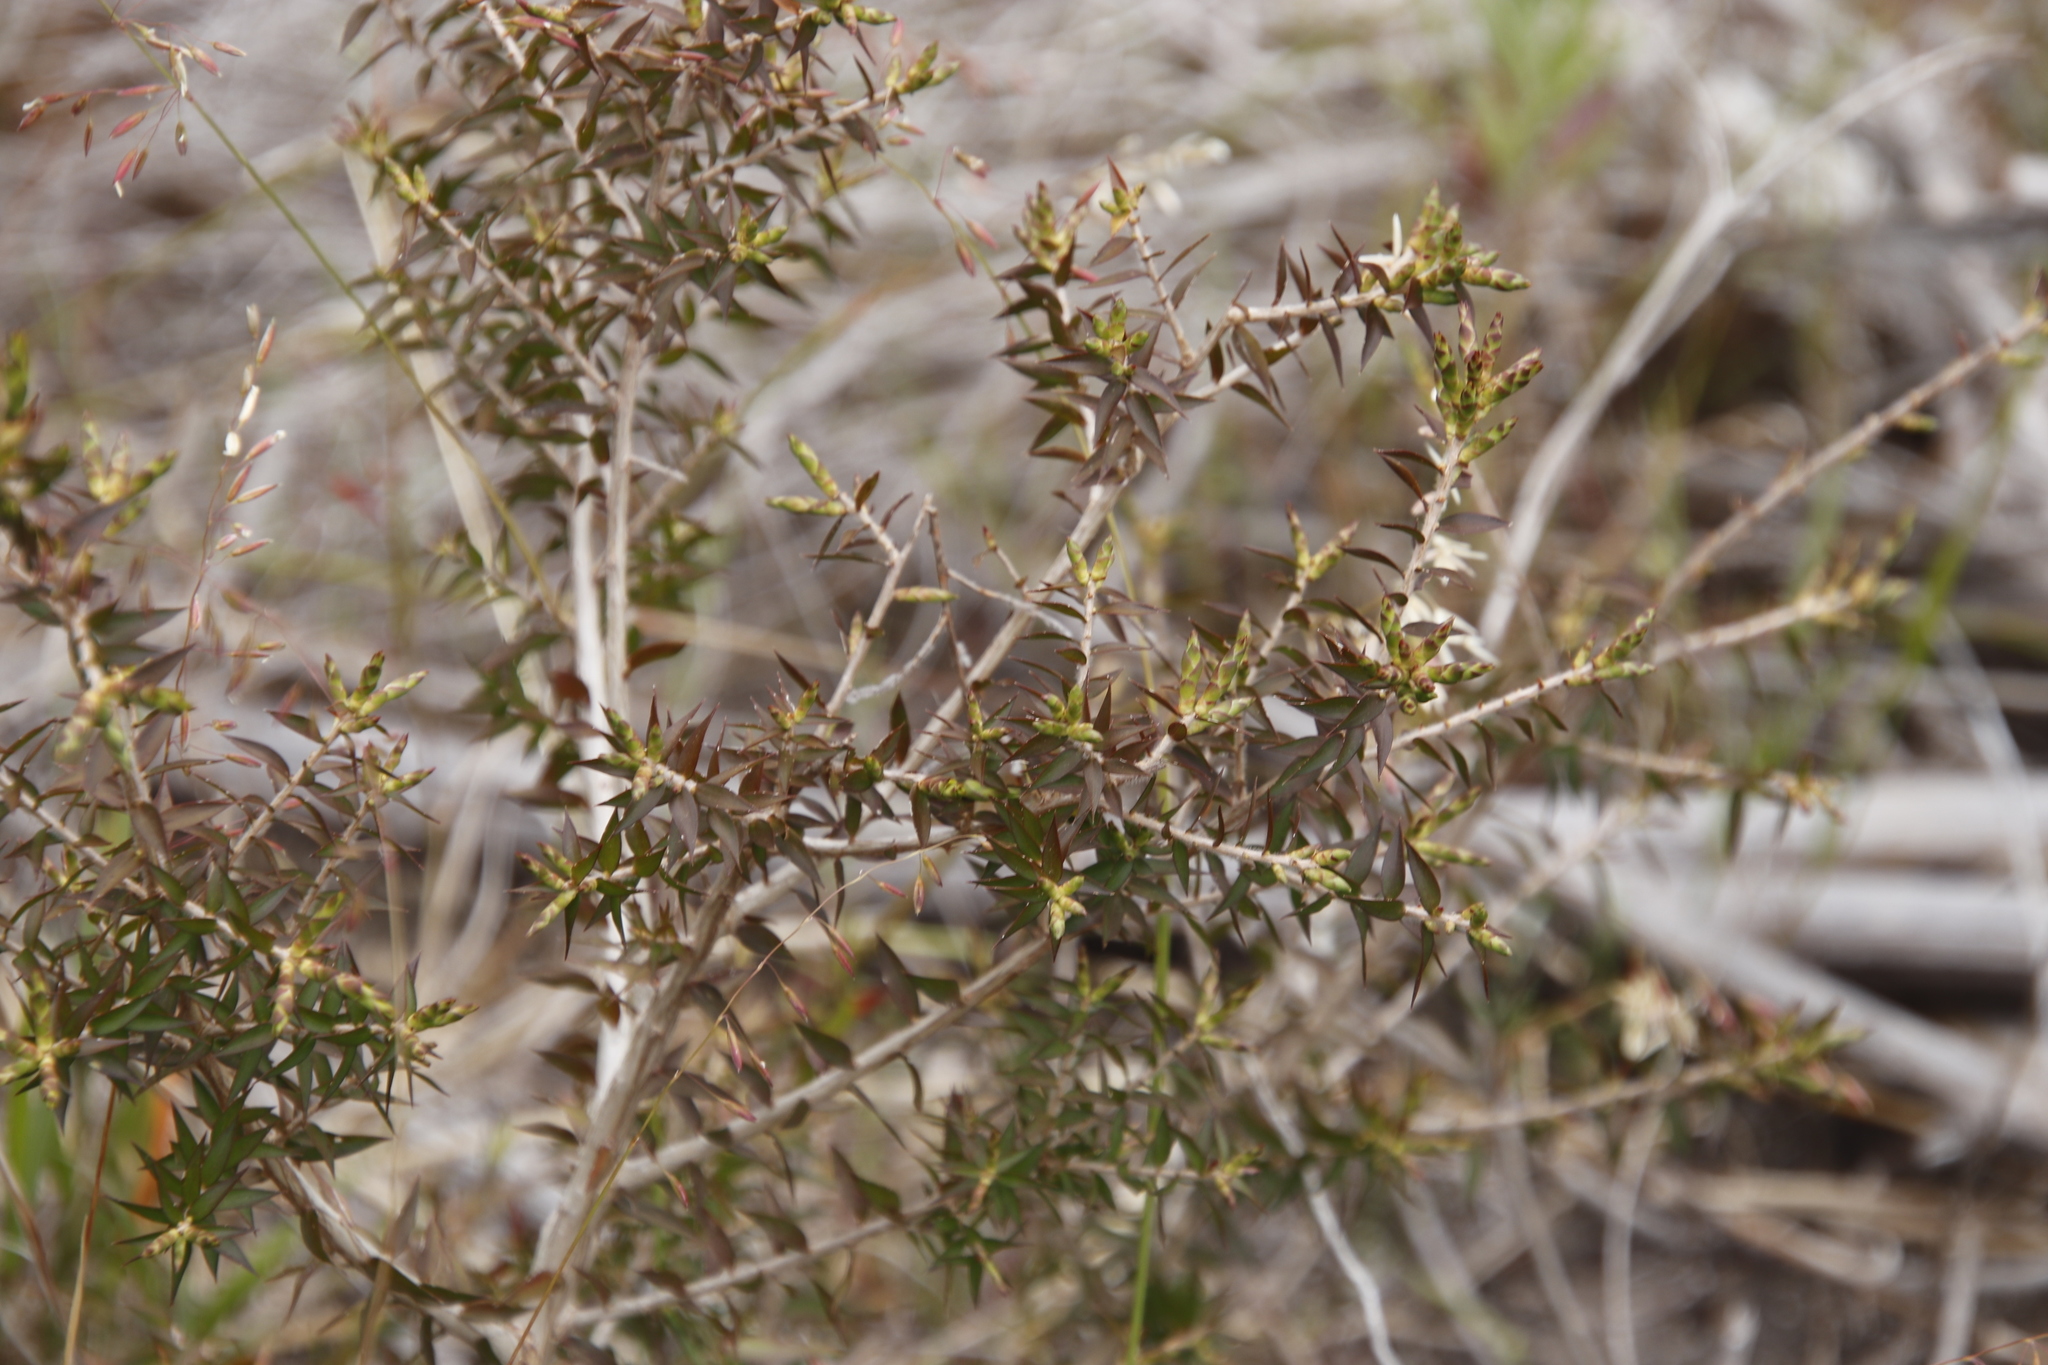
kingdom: Plantae
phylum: Tracheophyta
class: Magnoliopsida
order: Myrtales
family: Myrtaceae
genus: Melaleuca
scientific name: Melaleuca styphelioides
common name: Prickly paperbark
